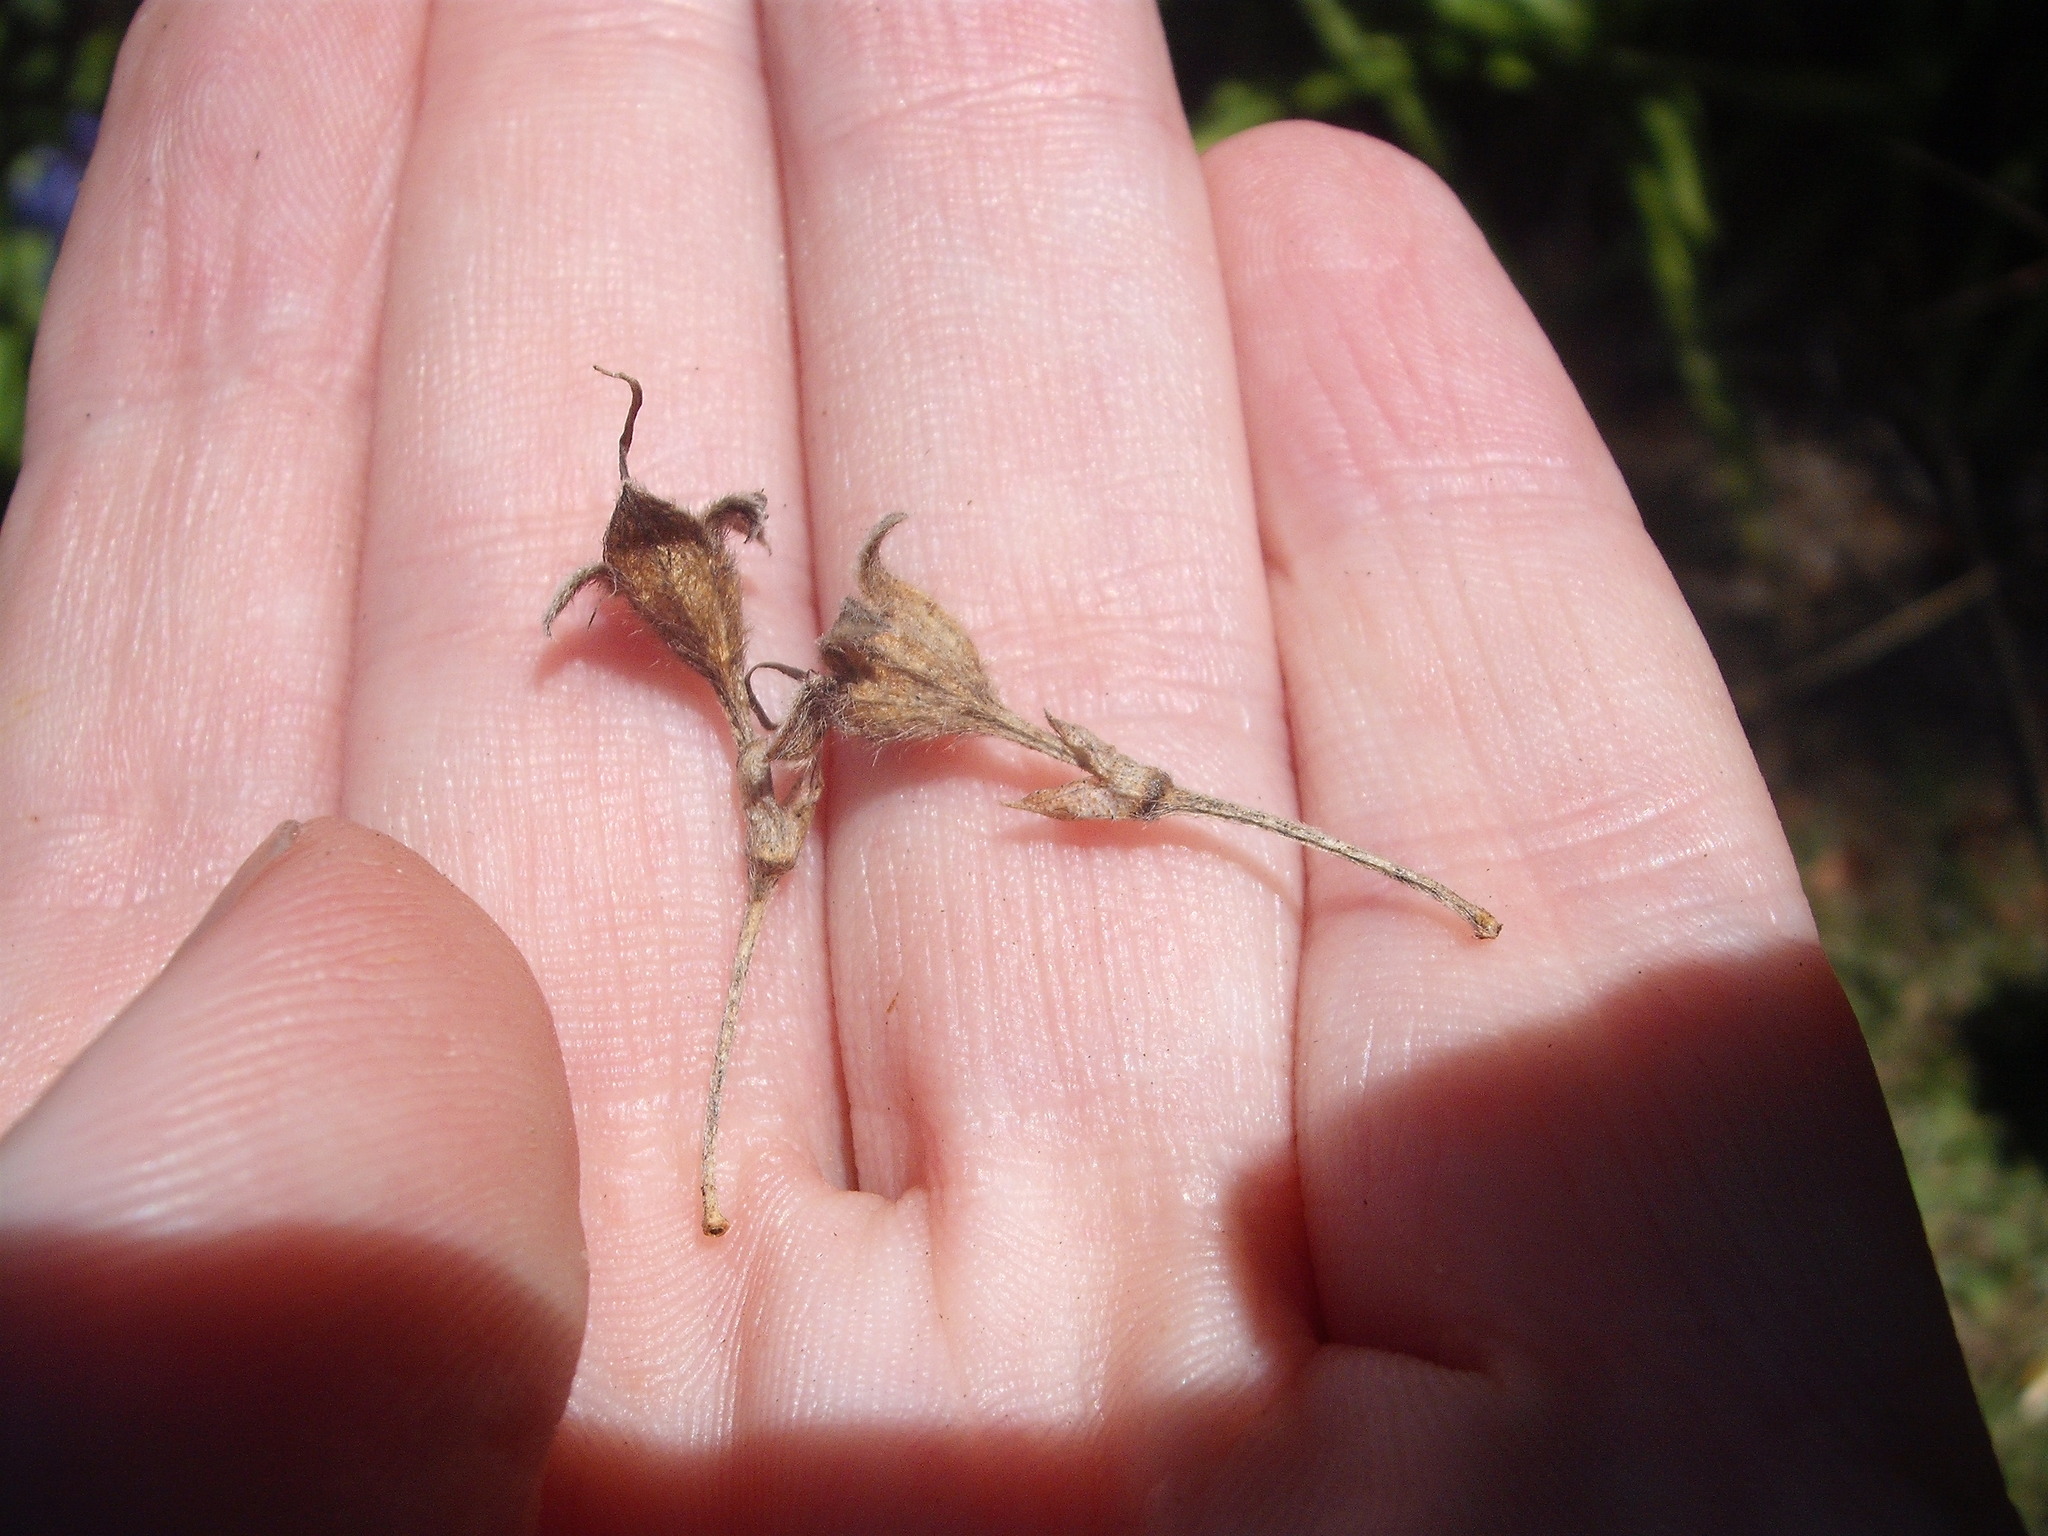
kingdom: Plantae
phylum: Tracheophyta
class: Magnoliopsida
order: Fabales
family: Fabaceae
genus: Psoralea
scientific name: Psoralea arborea
